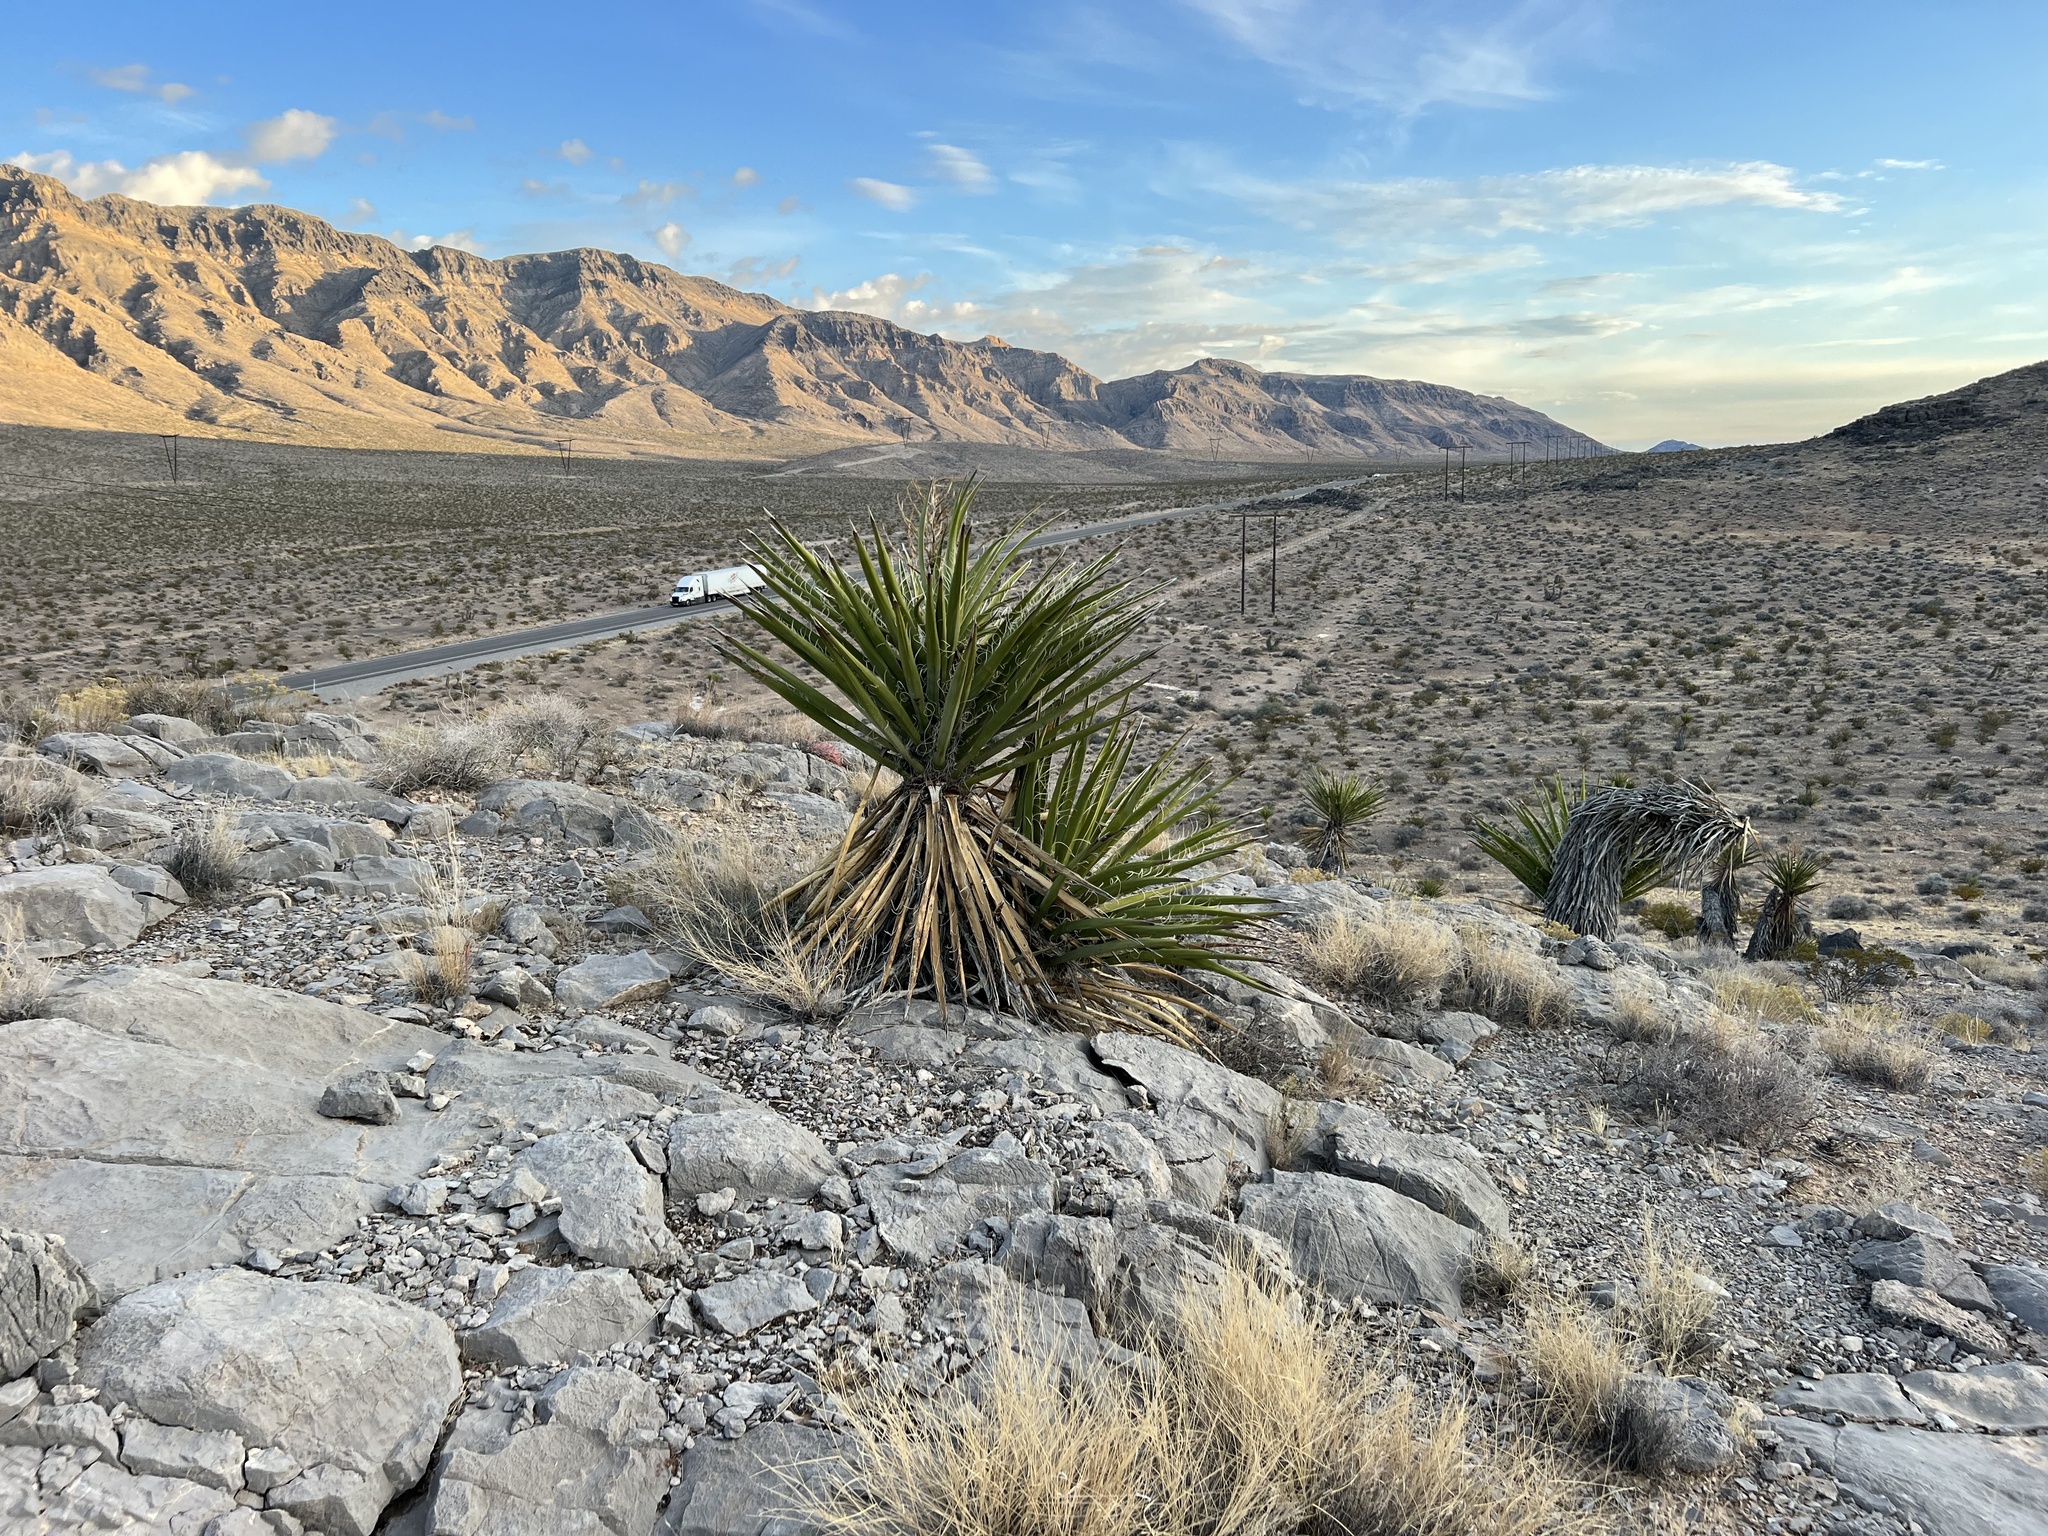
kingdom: Plantae
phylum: Tracheophyta
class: Liliopsida
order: Asparagales
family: Asparagaceae
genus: Yucca
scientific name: Yucca schidigera
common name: Mojave yucca
